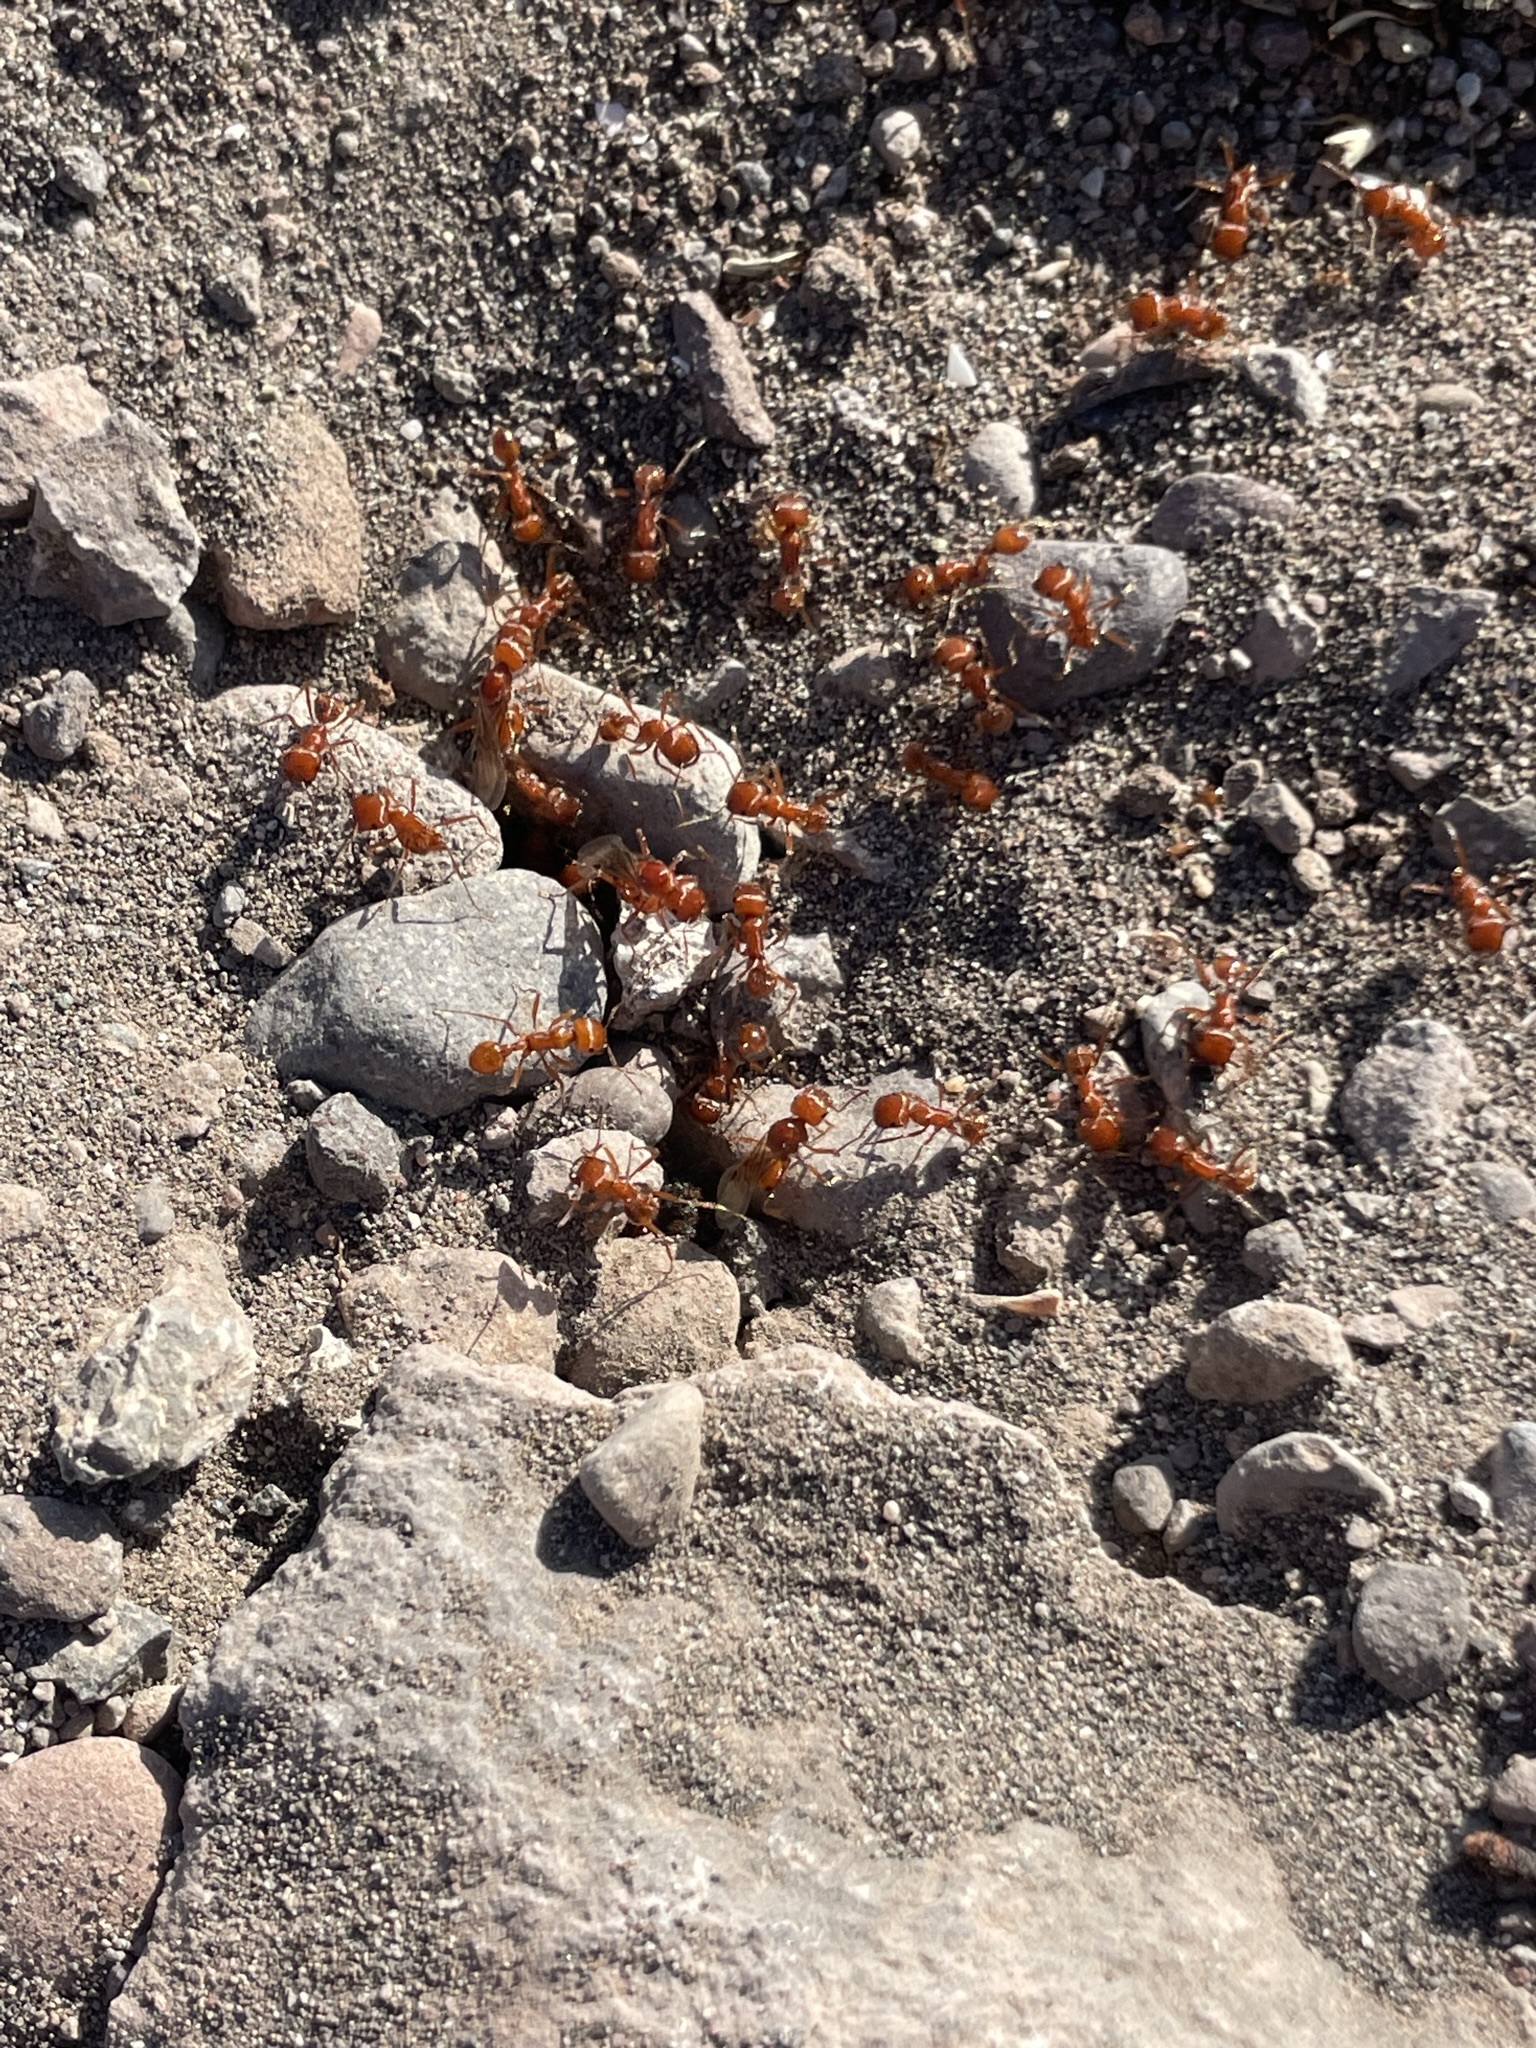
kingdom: Animalia
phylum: Arthropoda
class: Insecta
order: Hymenoptera
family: Formicidae
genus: Pogonomyrmex
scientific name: Pogonomyrmex californicus
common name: California harvester ant
